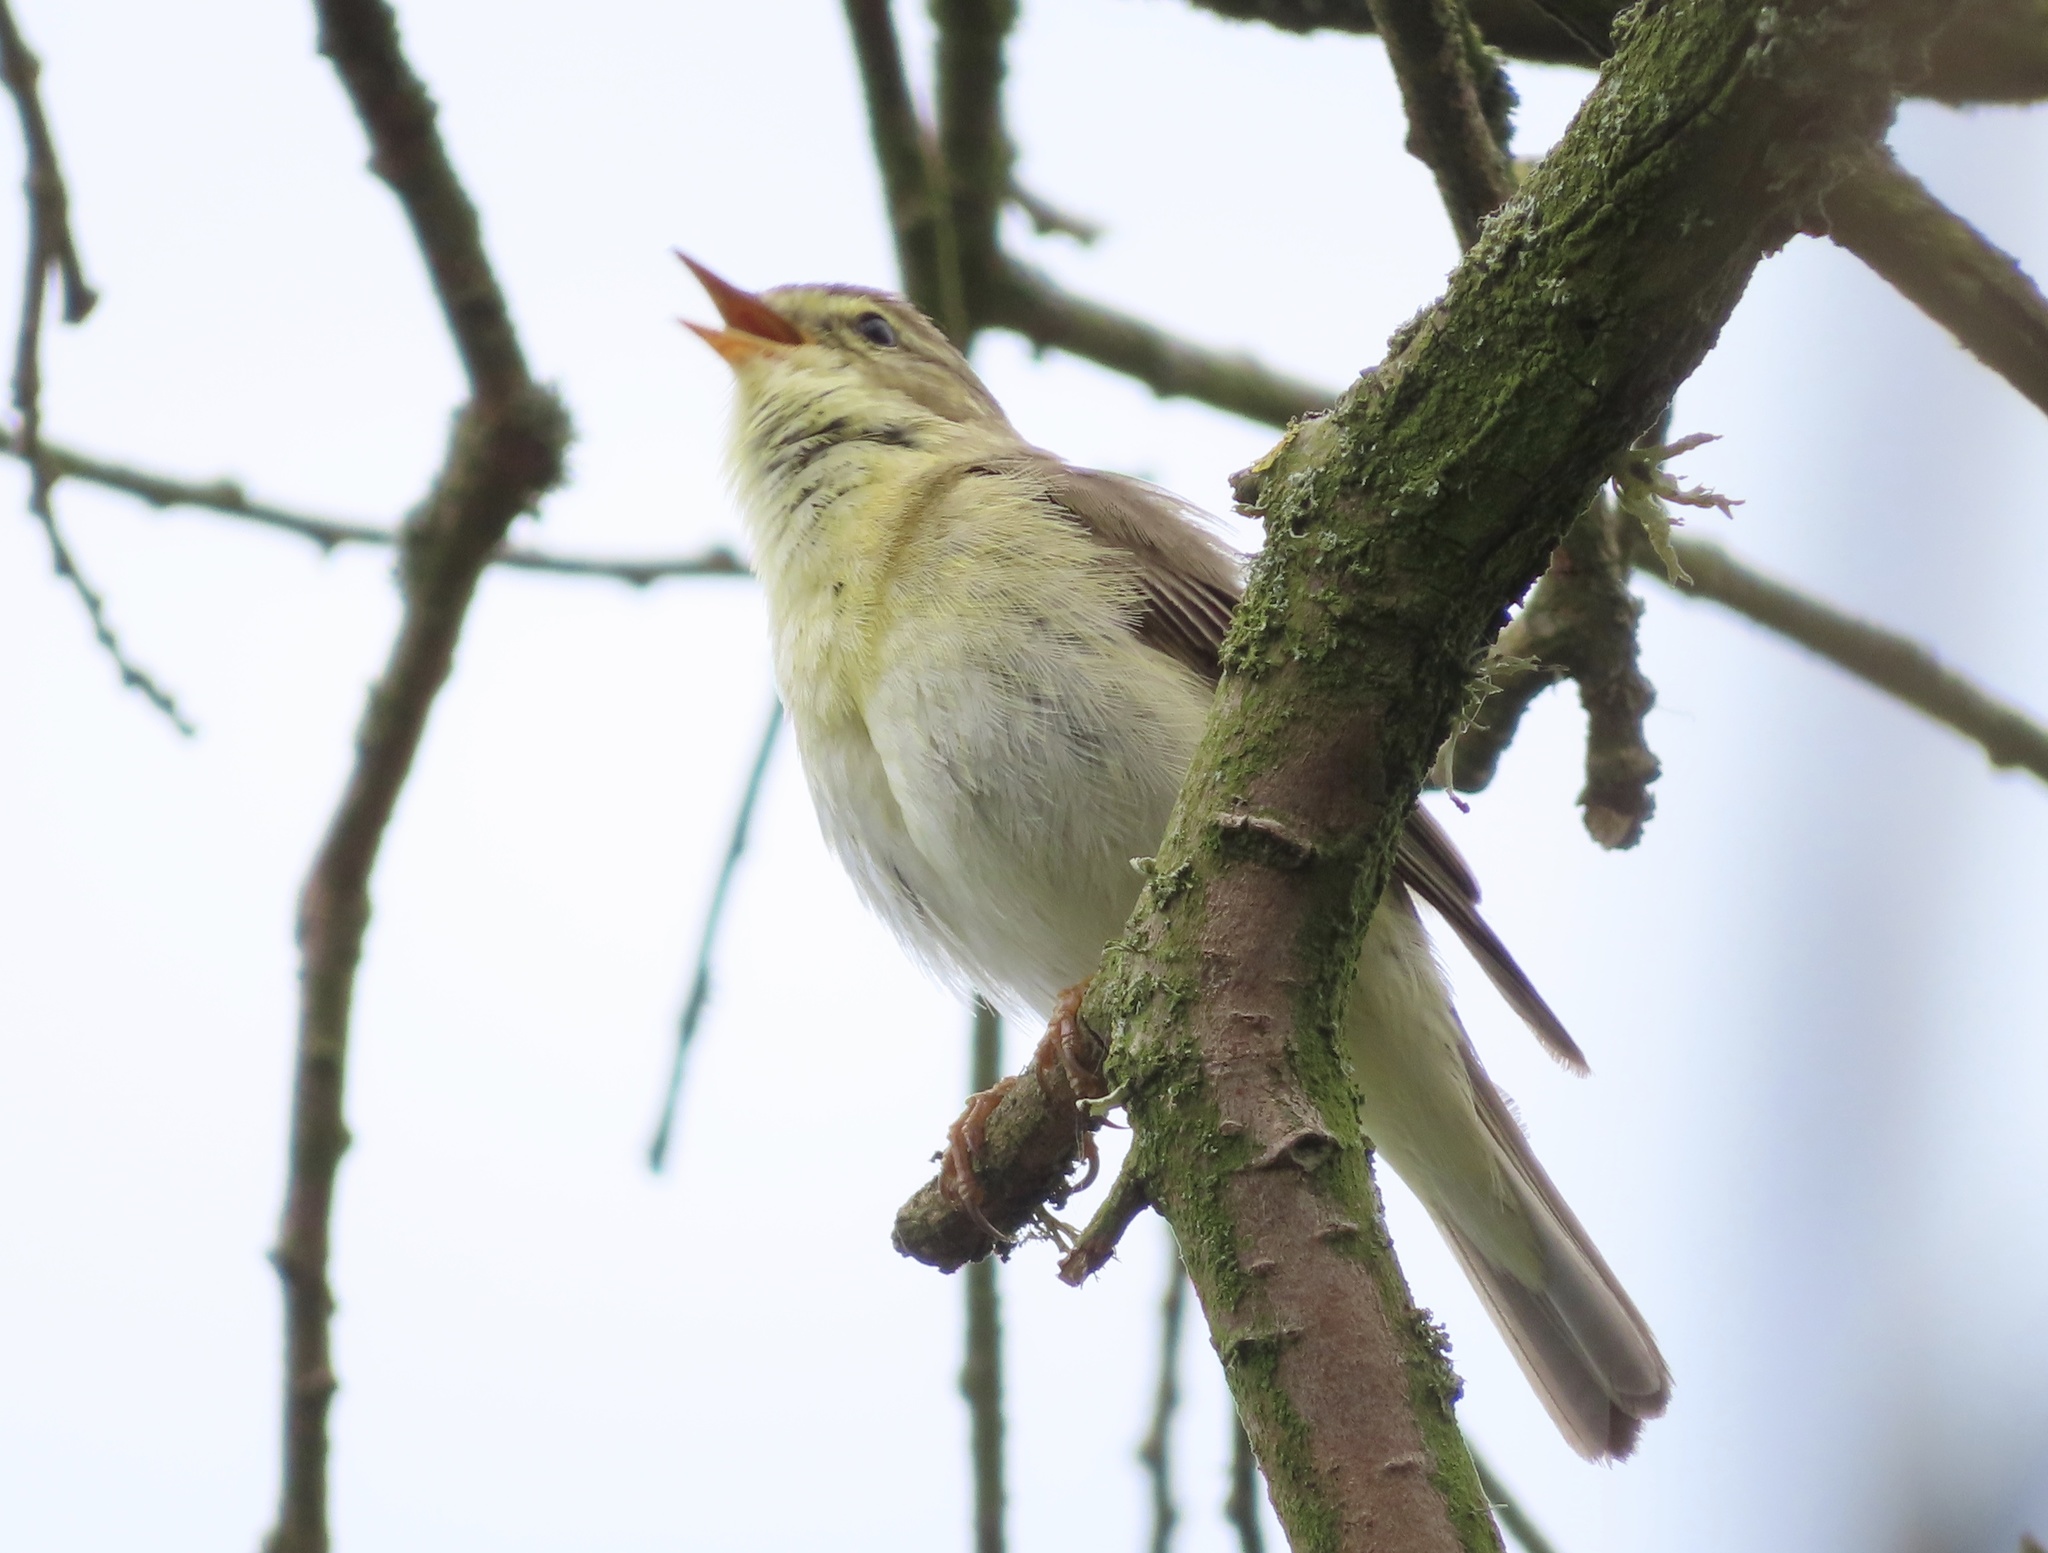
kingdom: Animalia
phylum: Chordata
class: Aves
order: Passeriformes
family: Phylloscopidae
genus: Phylloscopus
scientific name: Phylloscopus trochilus
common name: Willow warbler
